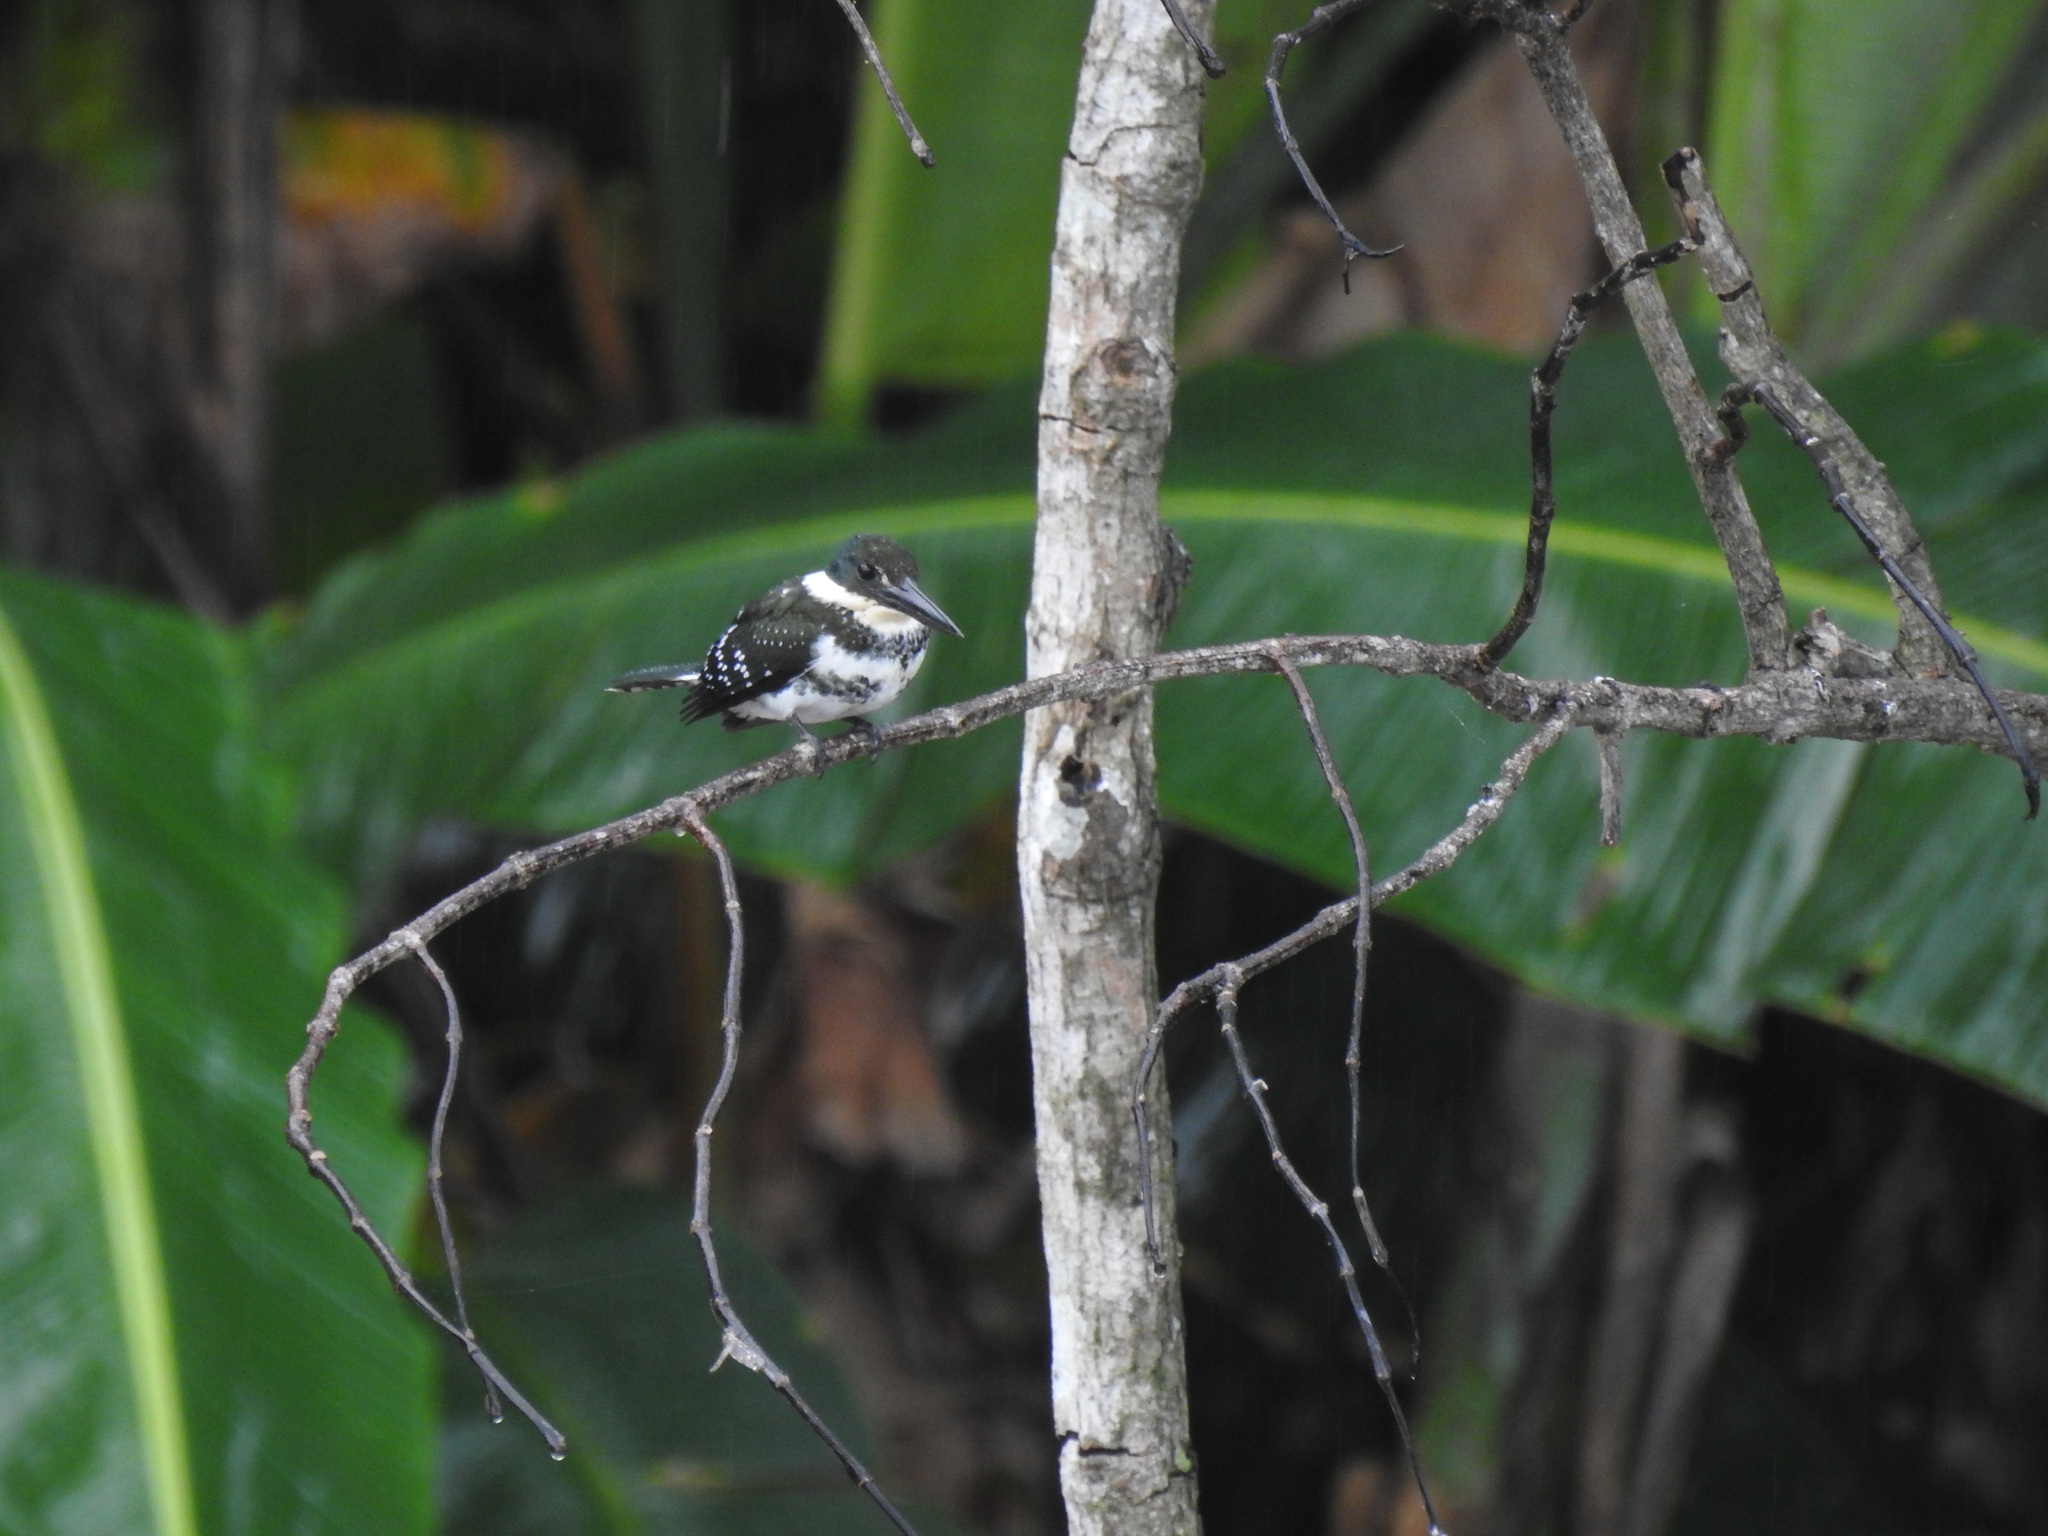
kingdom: Animalia
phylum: Chordata
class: Aves
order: Coraciiformes
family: Alcedinidae
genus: Chloroceryle
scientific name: Chloroceryle americana
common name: Green kingfisher
